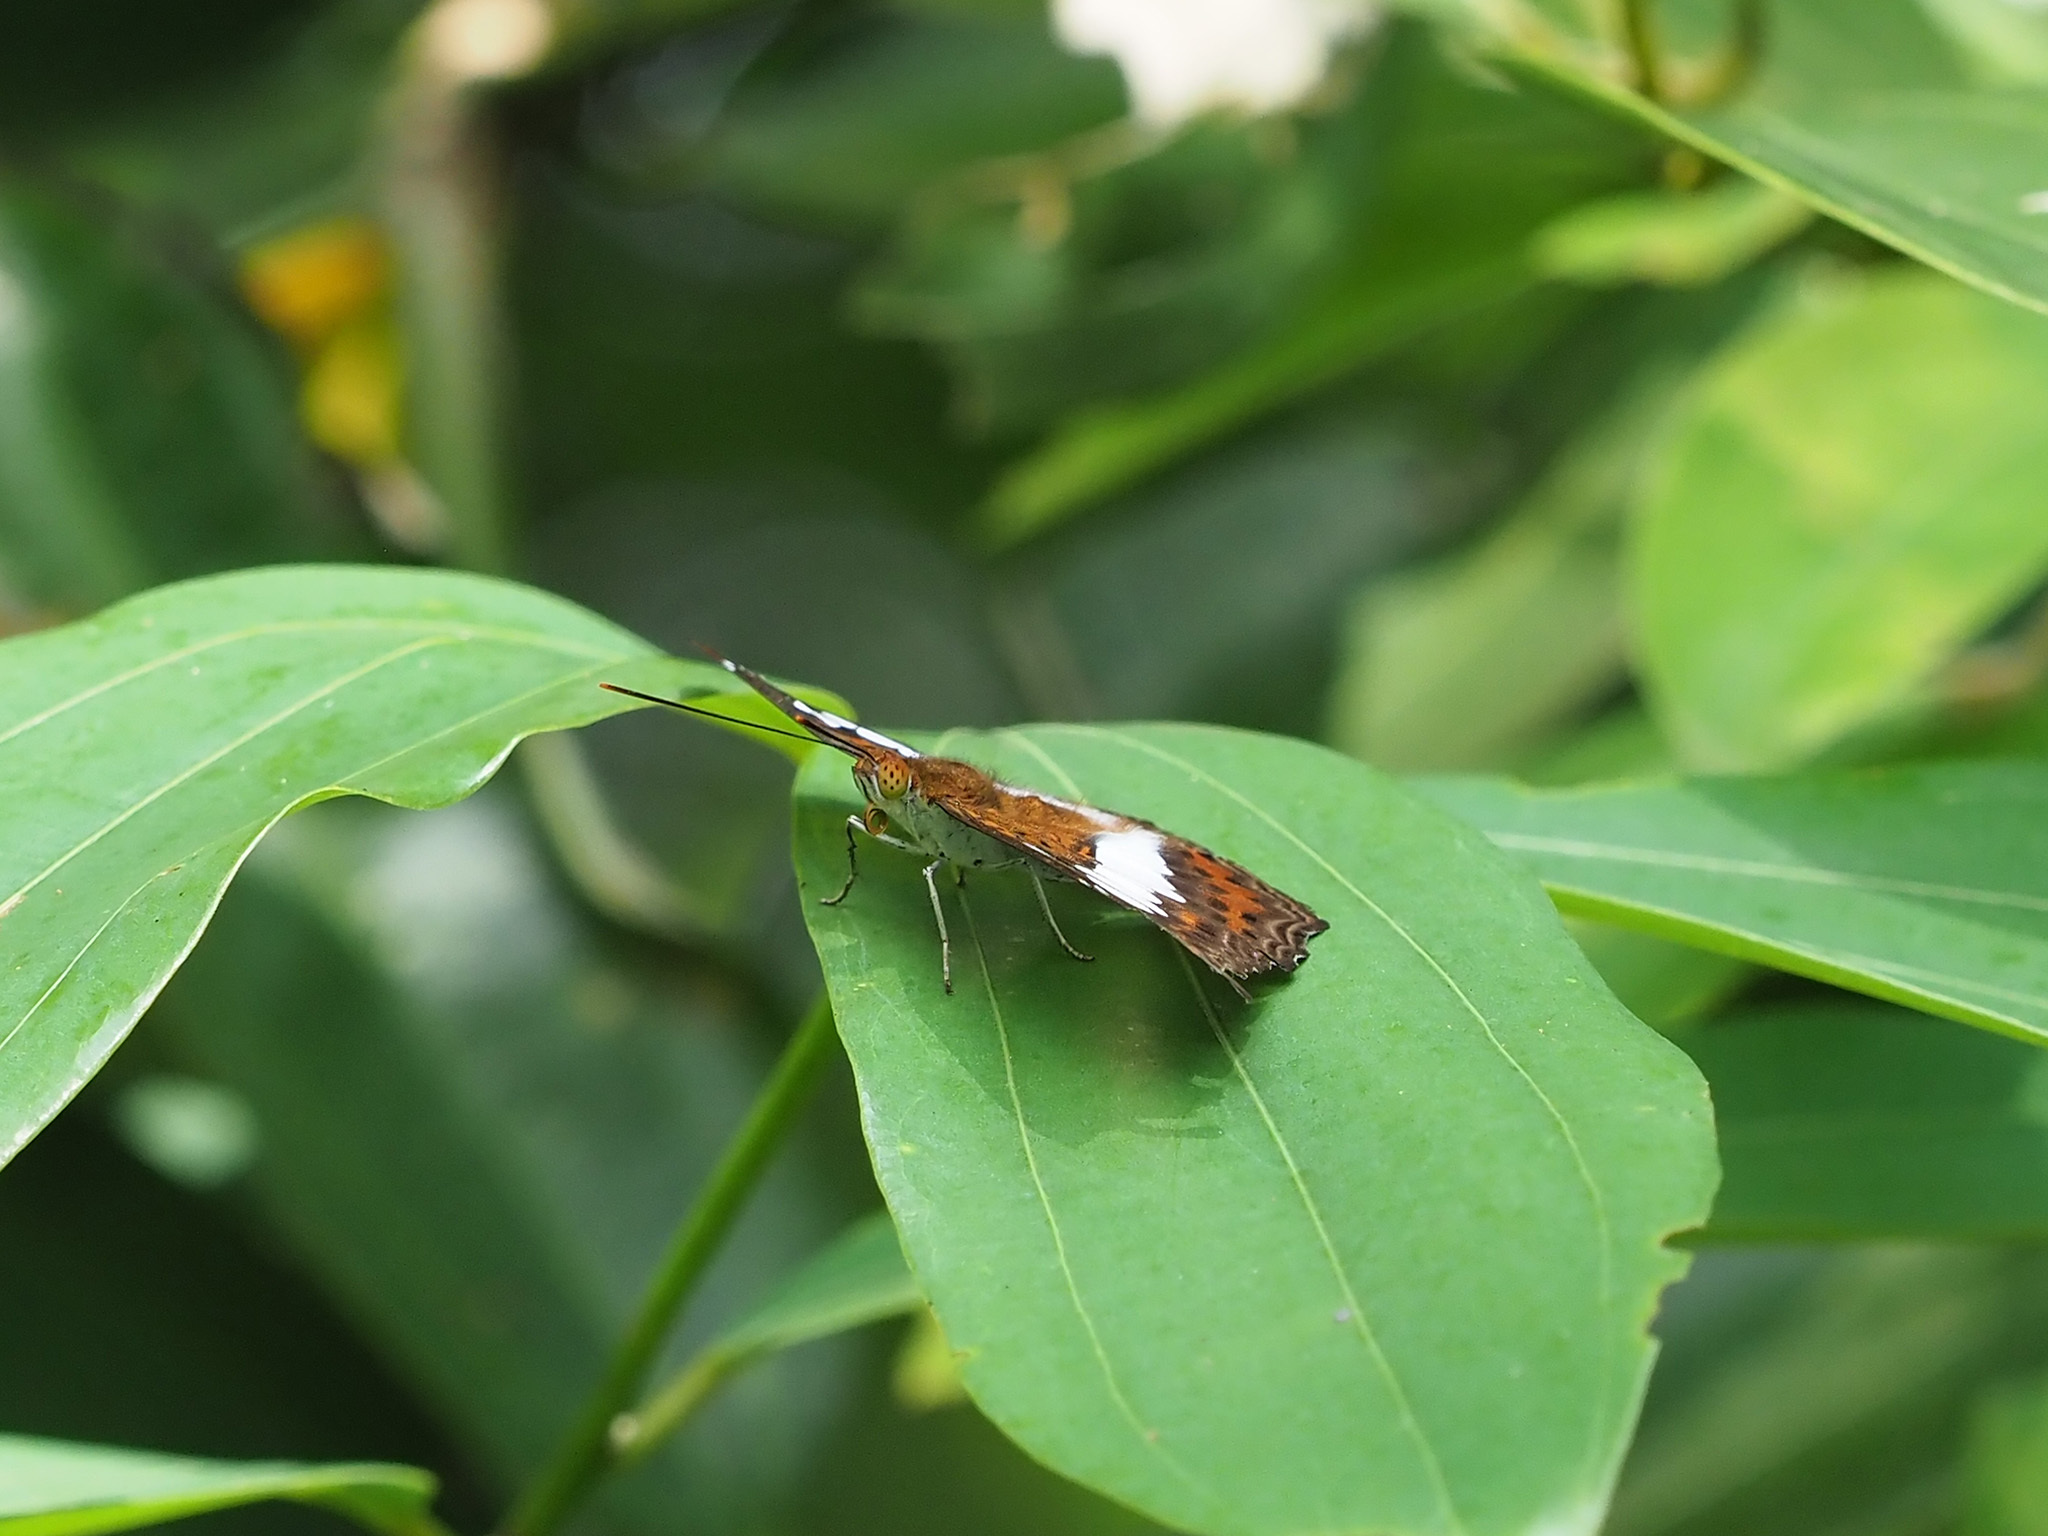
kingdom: Animalia
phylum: Arthropoda
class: Insecta
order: Lepidoptera
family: Nymphalidae
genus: Limenitis
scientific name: Limenitis Moduza procris
